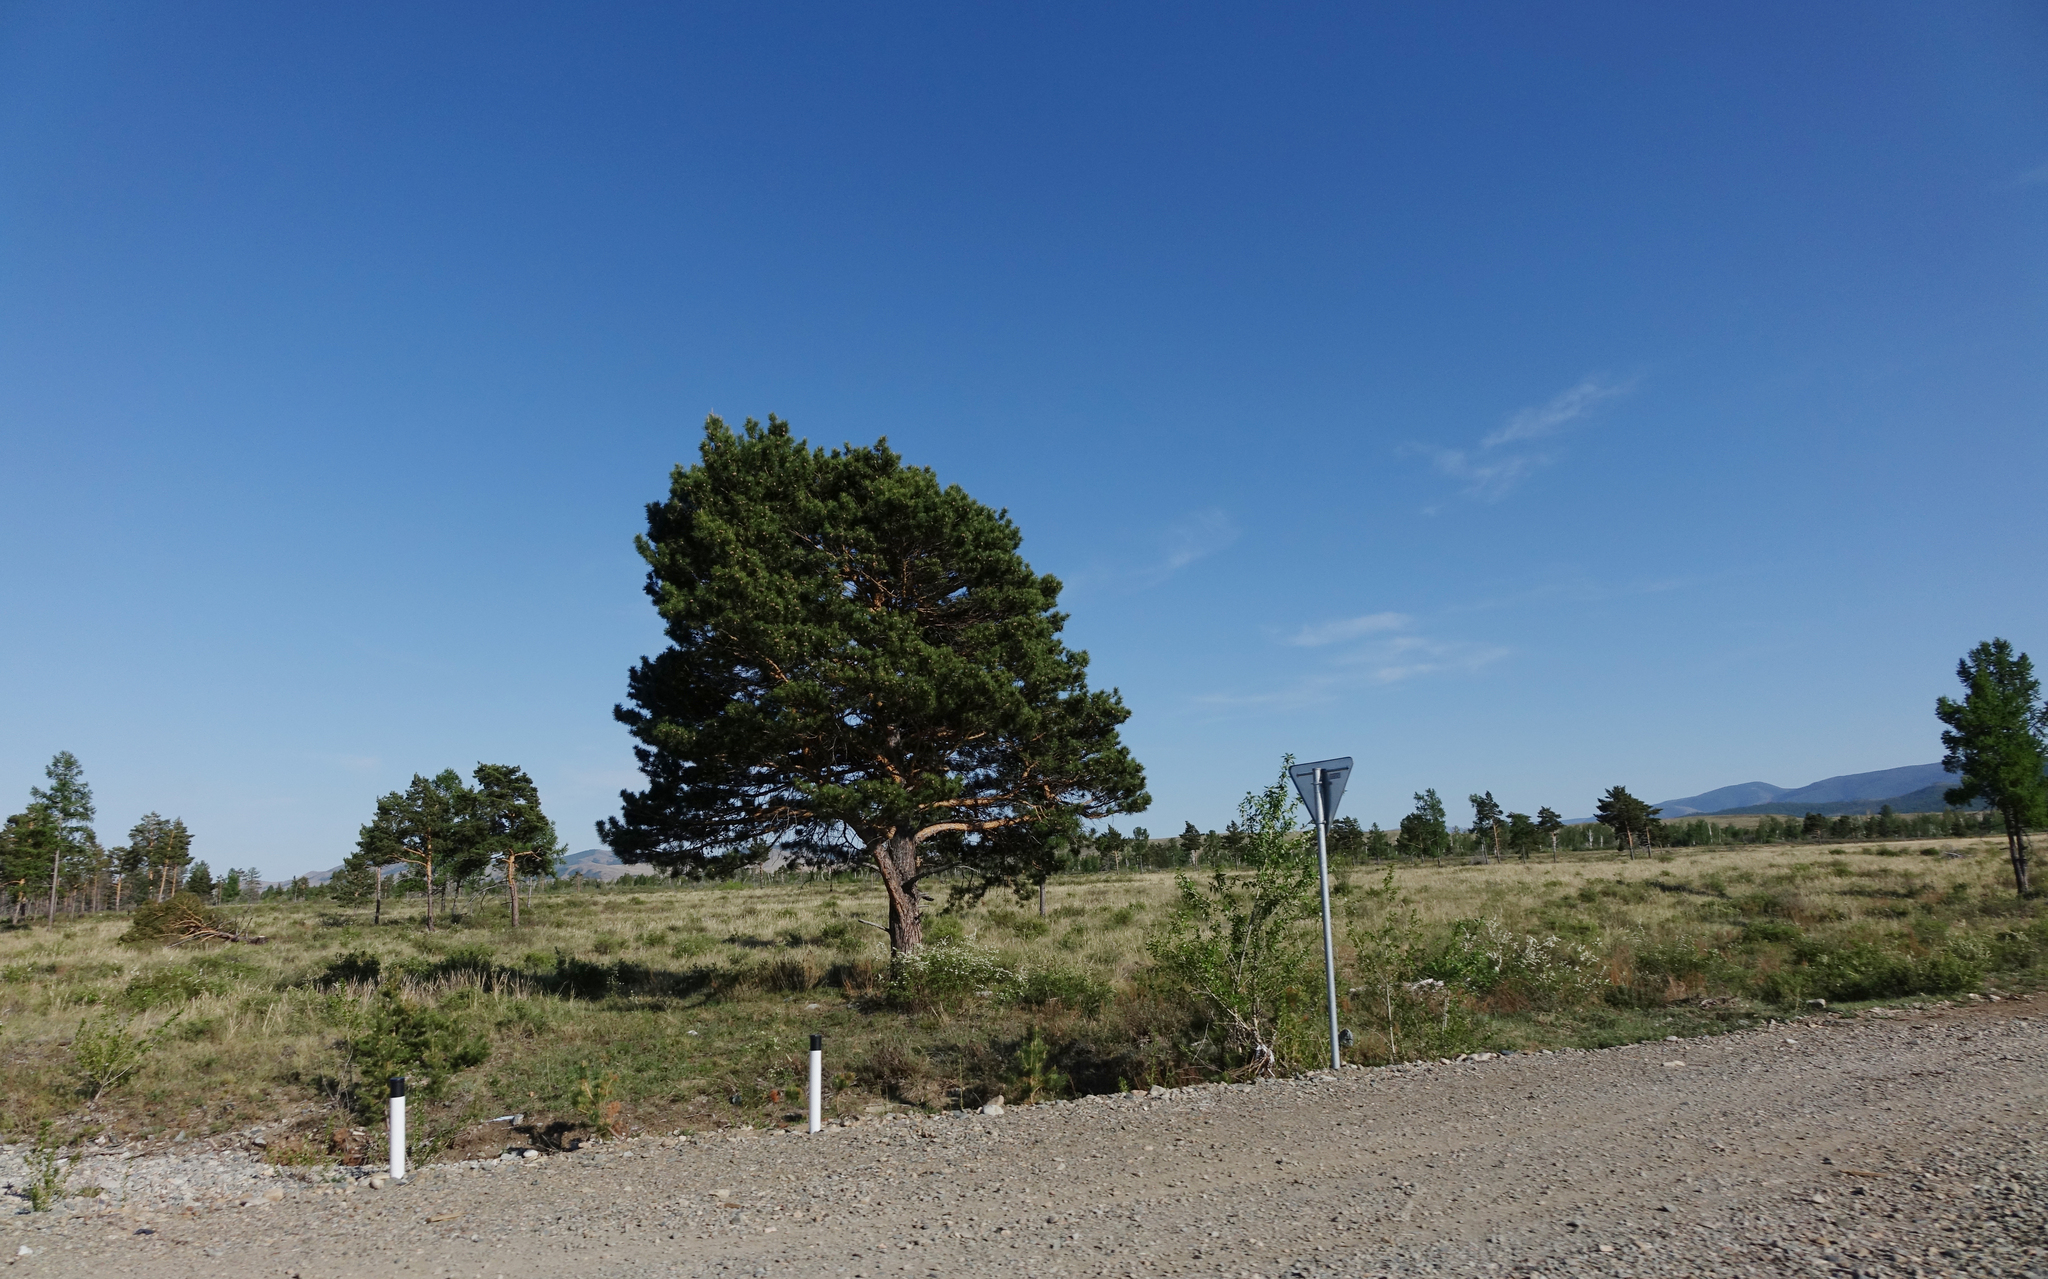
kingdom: Plantae
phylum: Tracheophyta
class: Pinopsida
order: Pinales
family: Pinaceae
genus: Pinus
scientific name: Pinus sylvestris
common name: Scots pine
